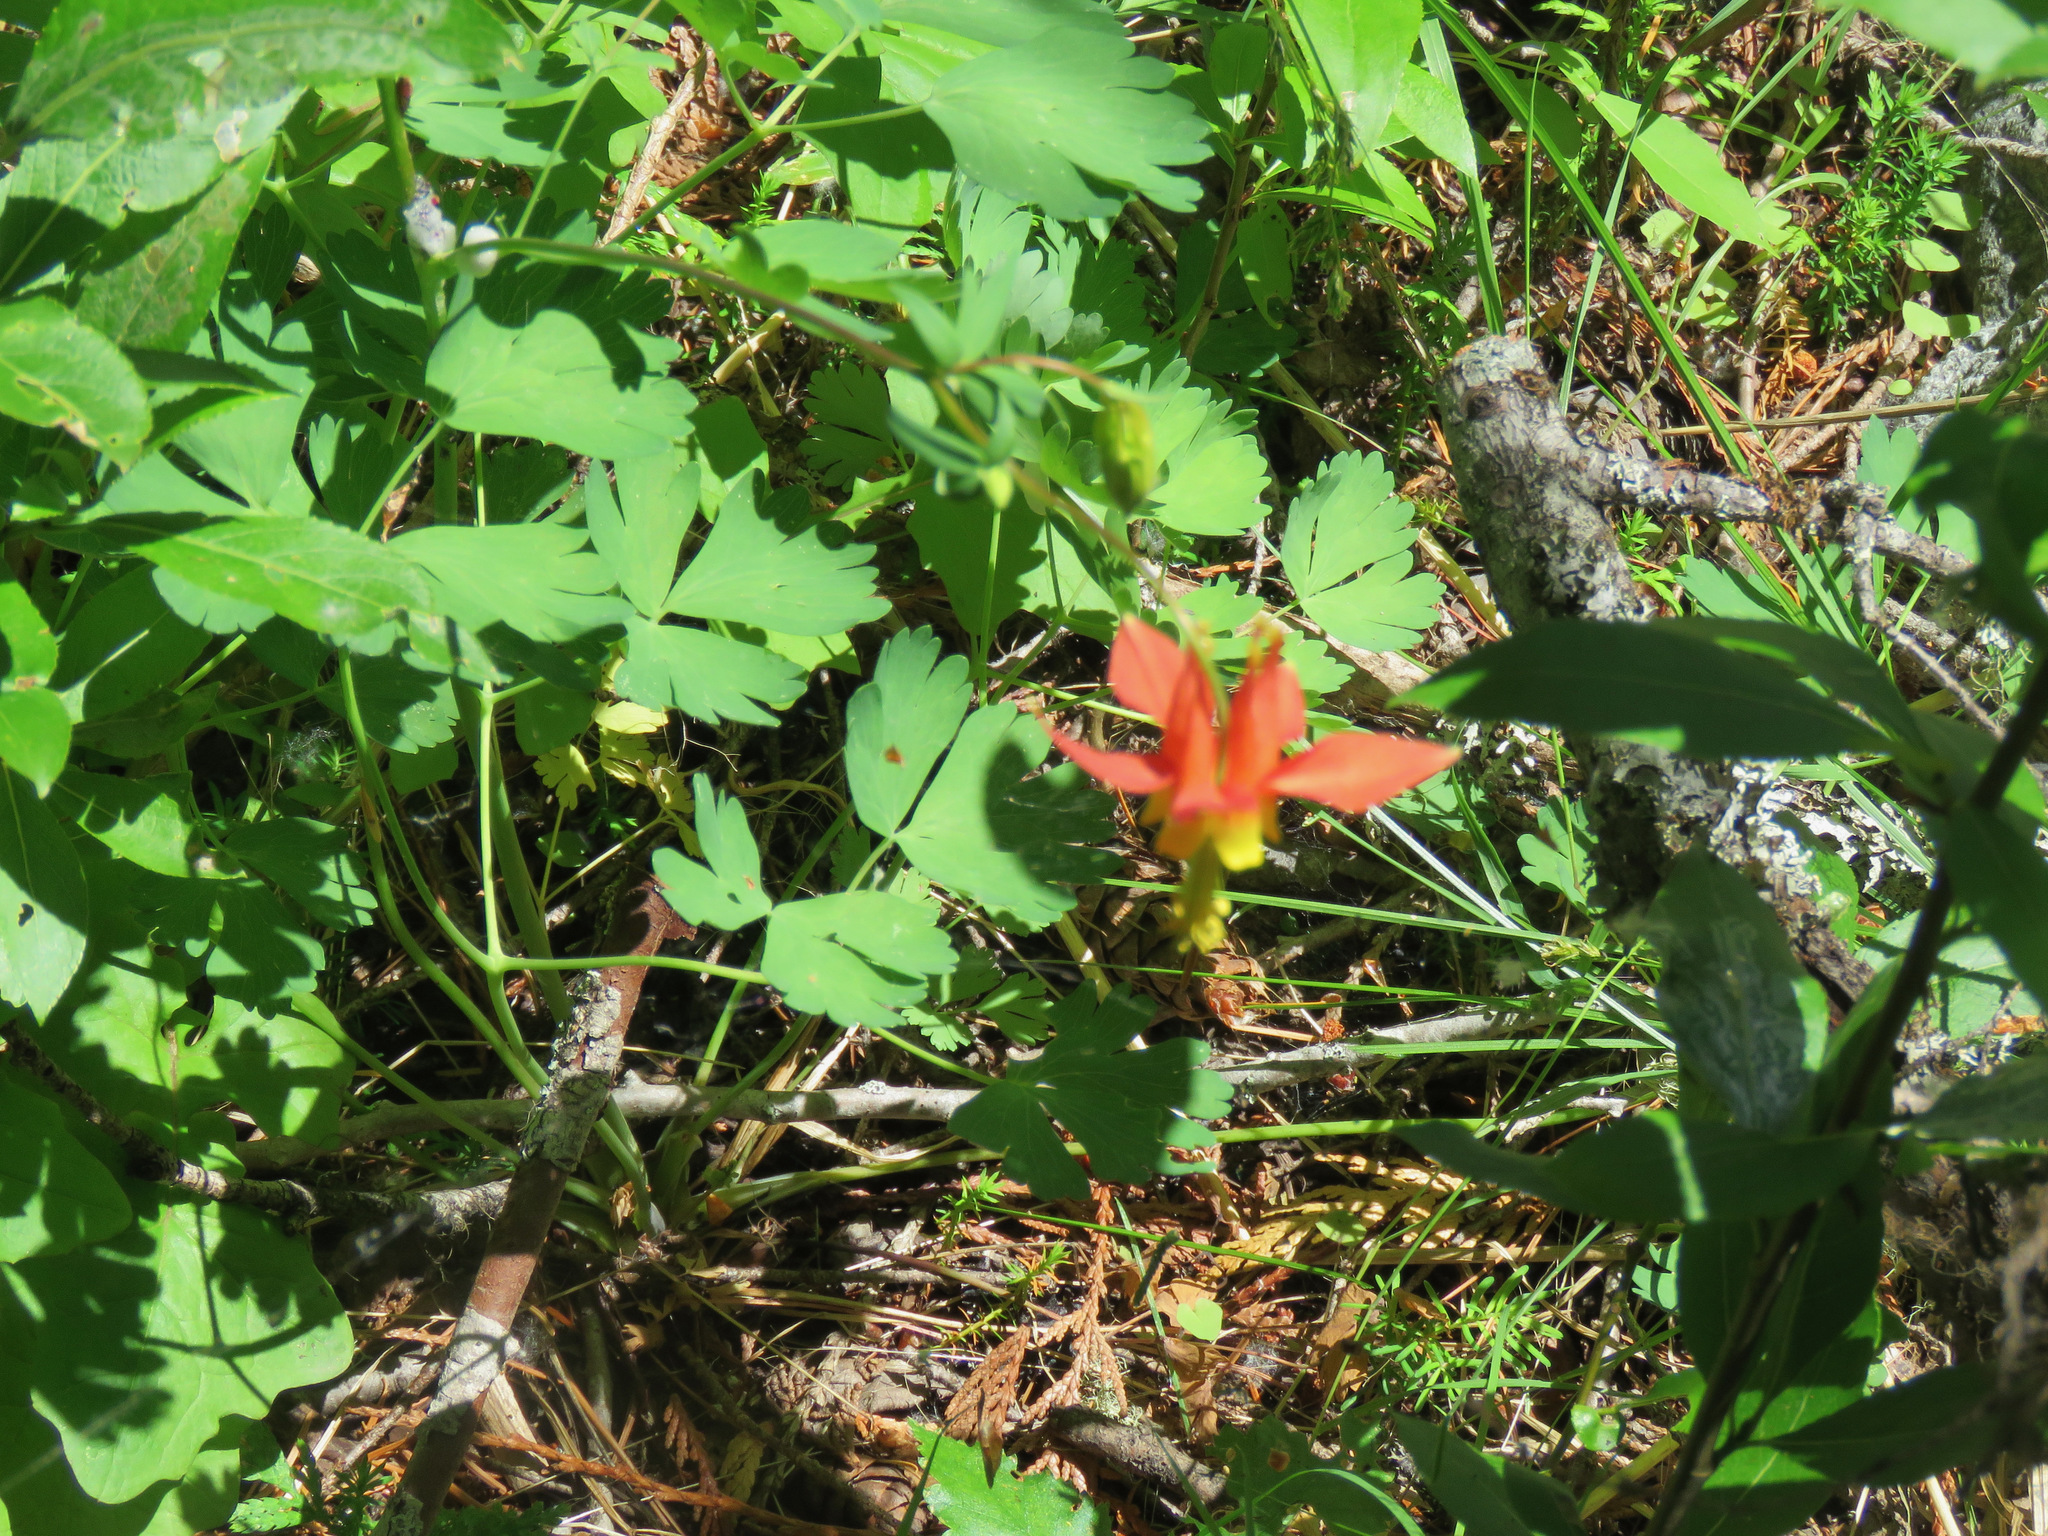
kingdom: Plantae
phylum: Tracheophyta
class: Magnoliopsida
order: Ranunculales
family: Ranunculaceae
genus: Aquilegia
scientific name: Aquilegia formosa
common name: Sitka columbine
